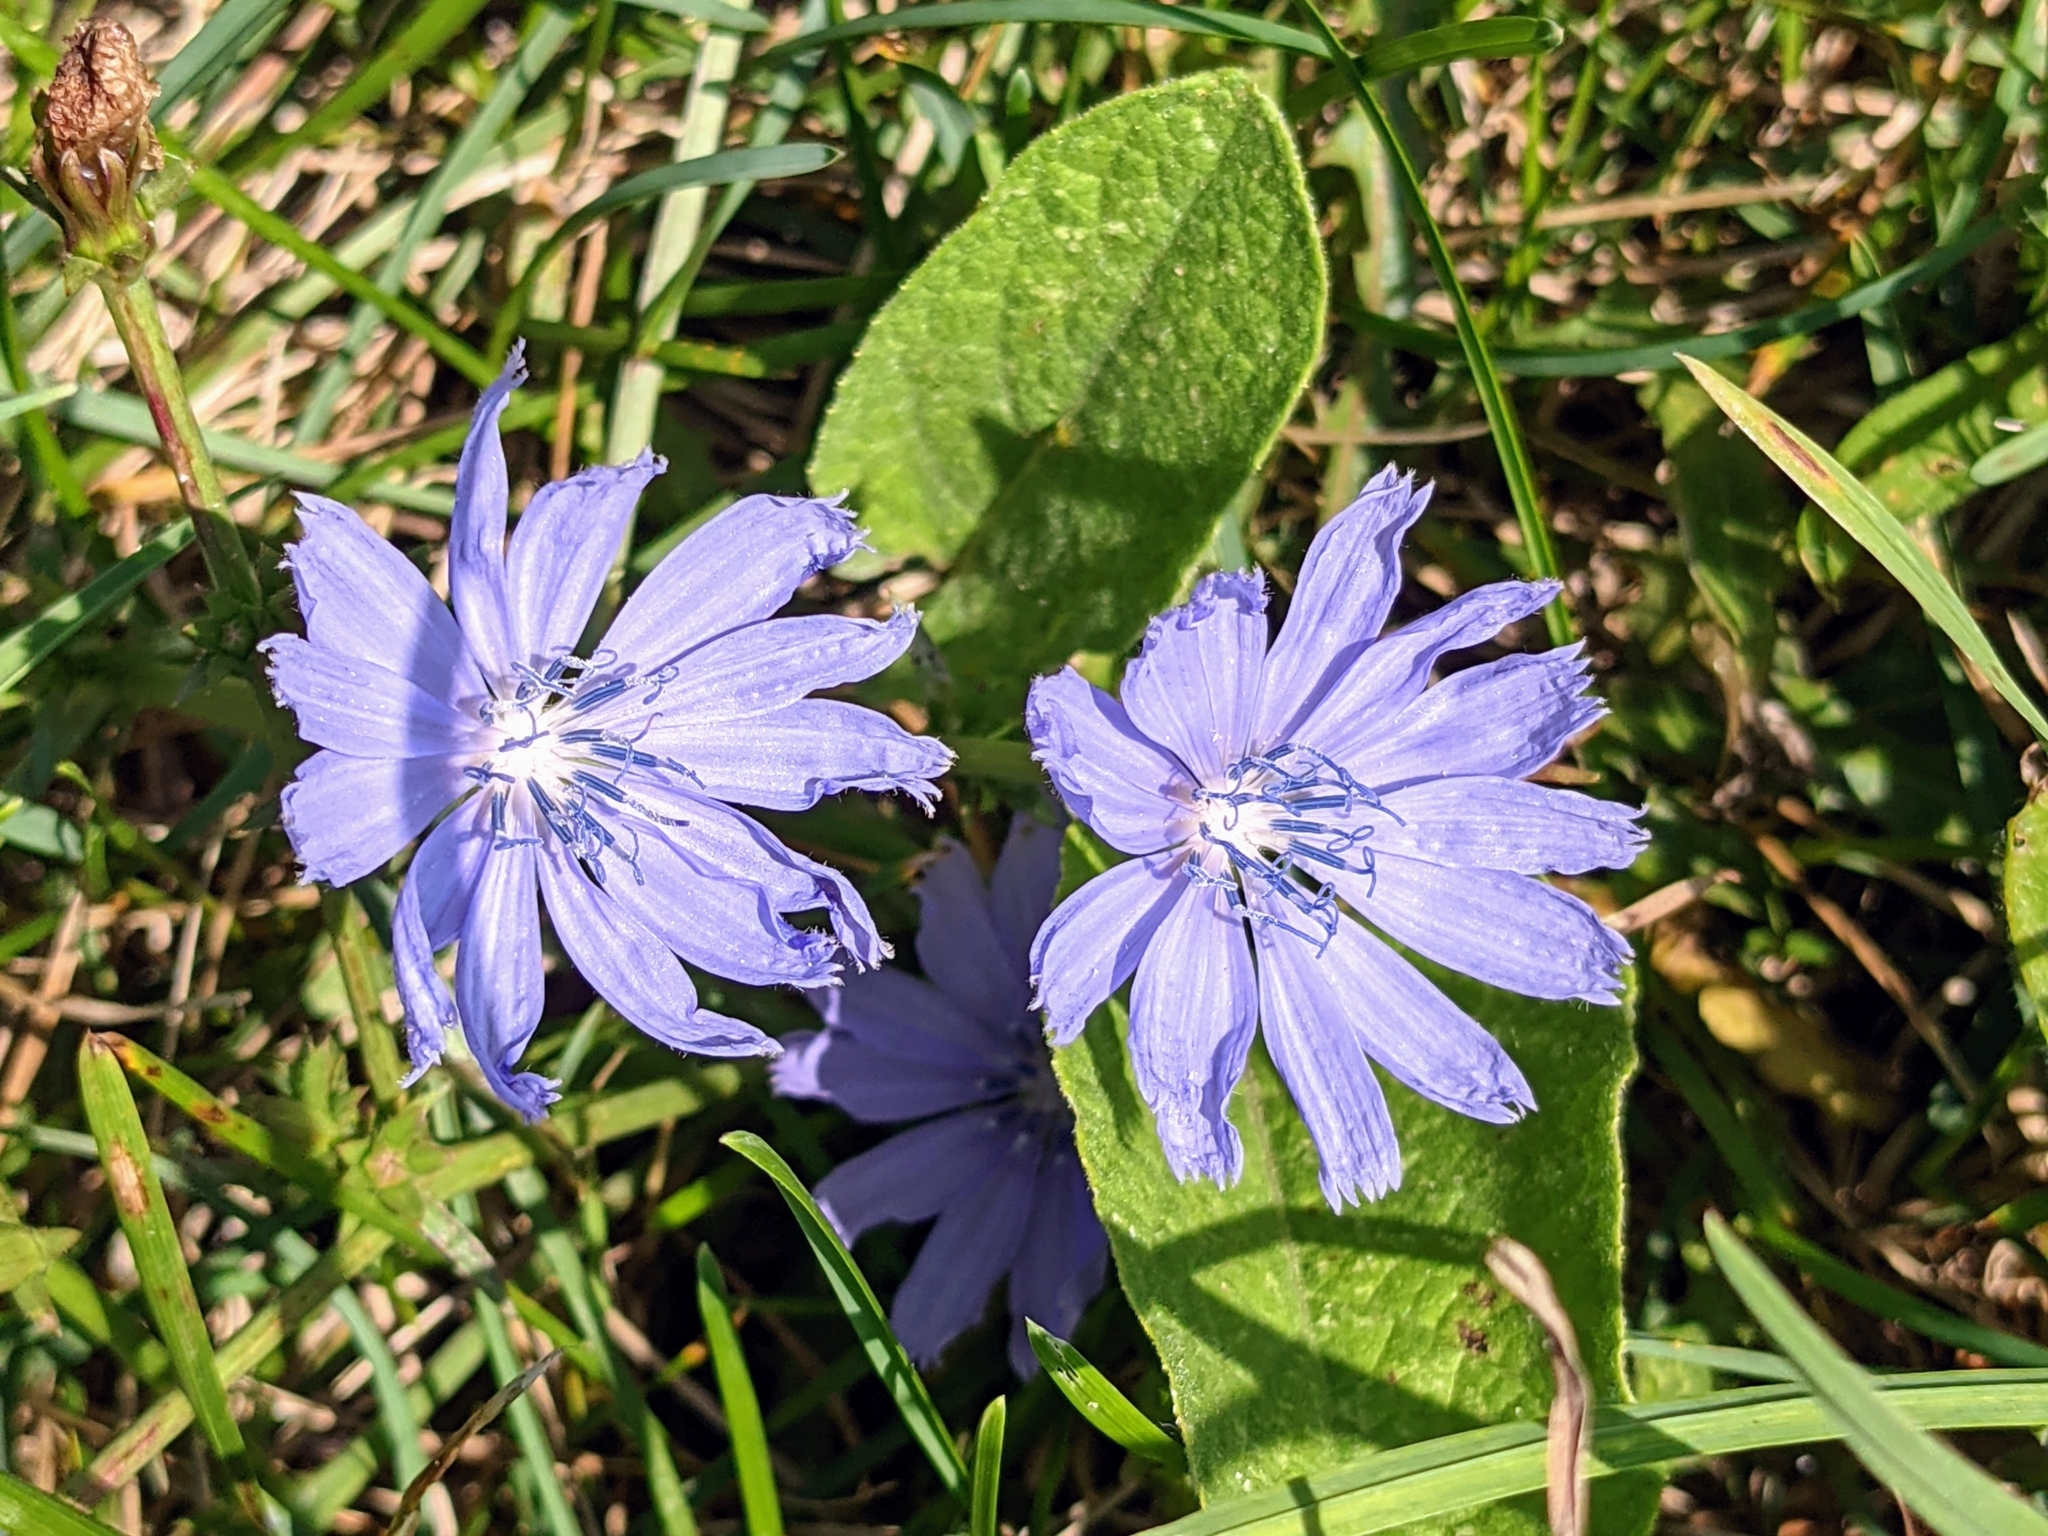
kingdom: Plantae
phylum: Tracheophyta
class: Magnoliopsida
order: Asterales
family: Asteraceae
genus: Cichorium
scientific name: Cichorium intybus
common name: Chicory
